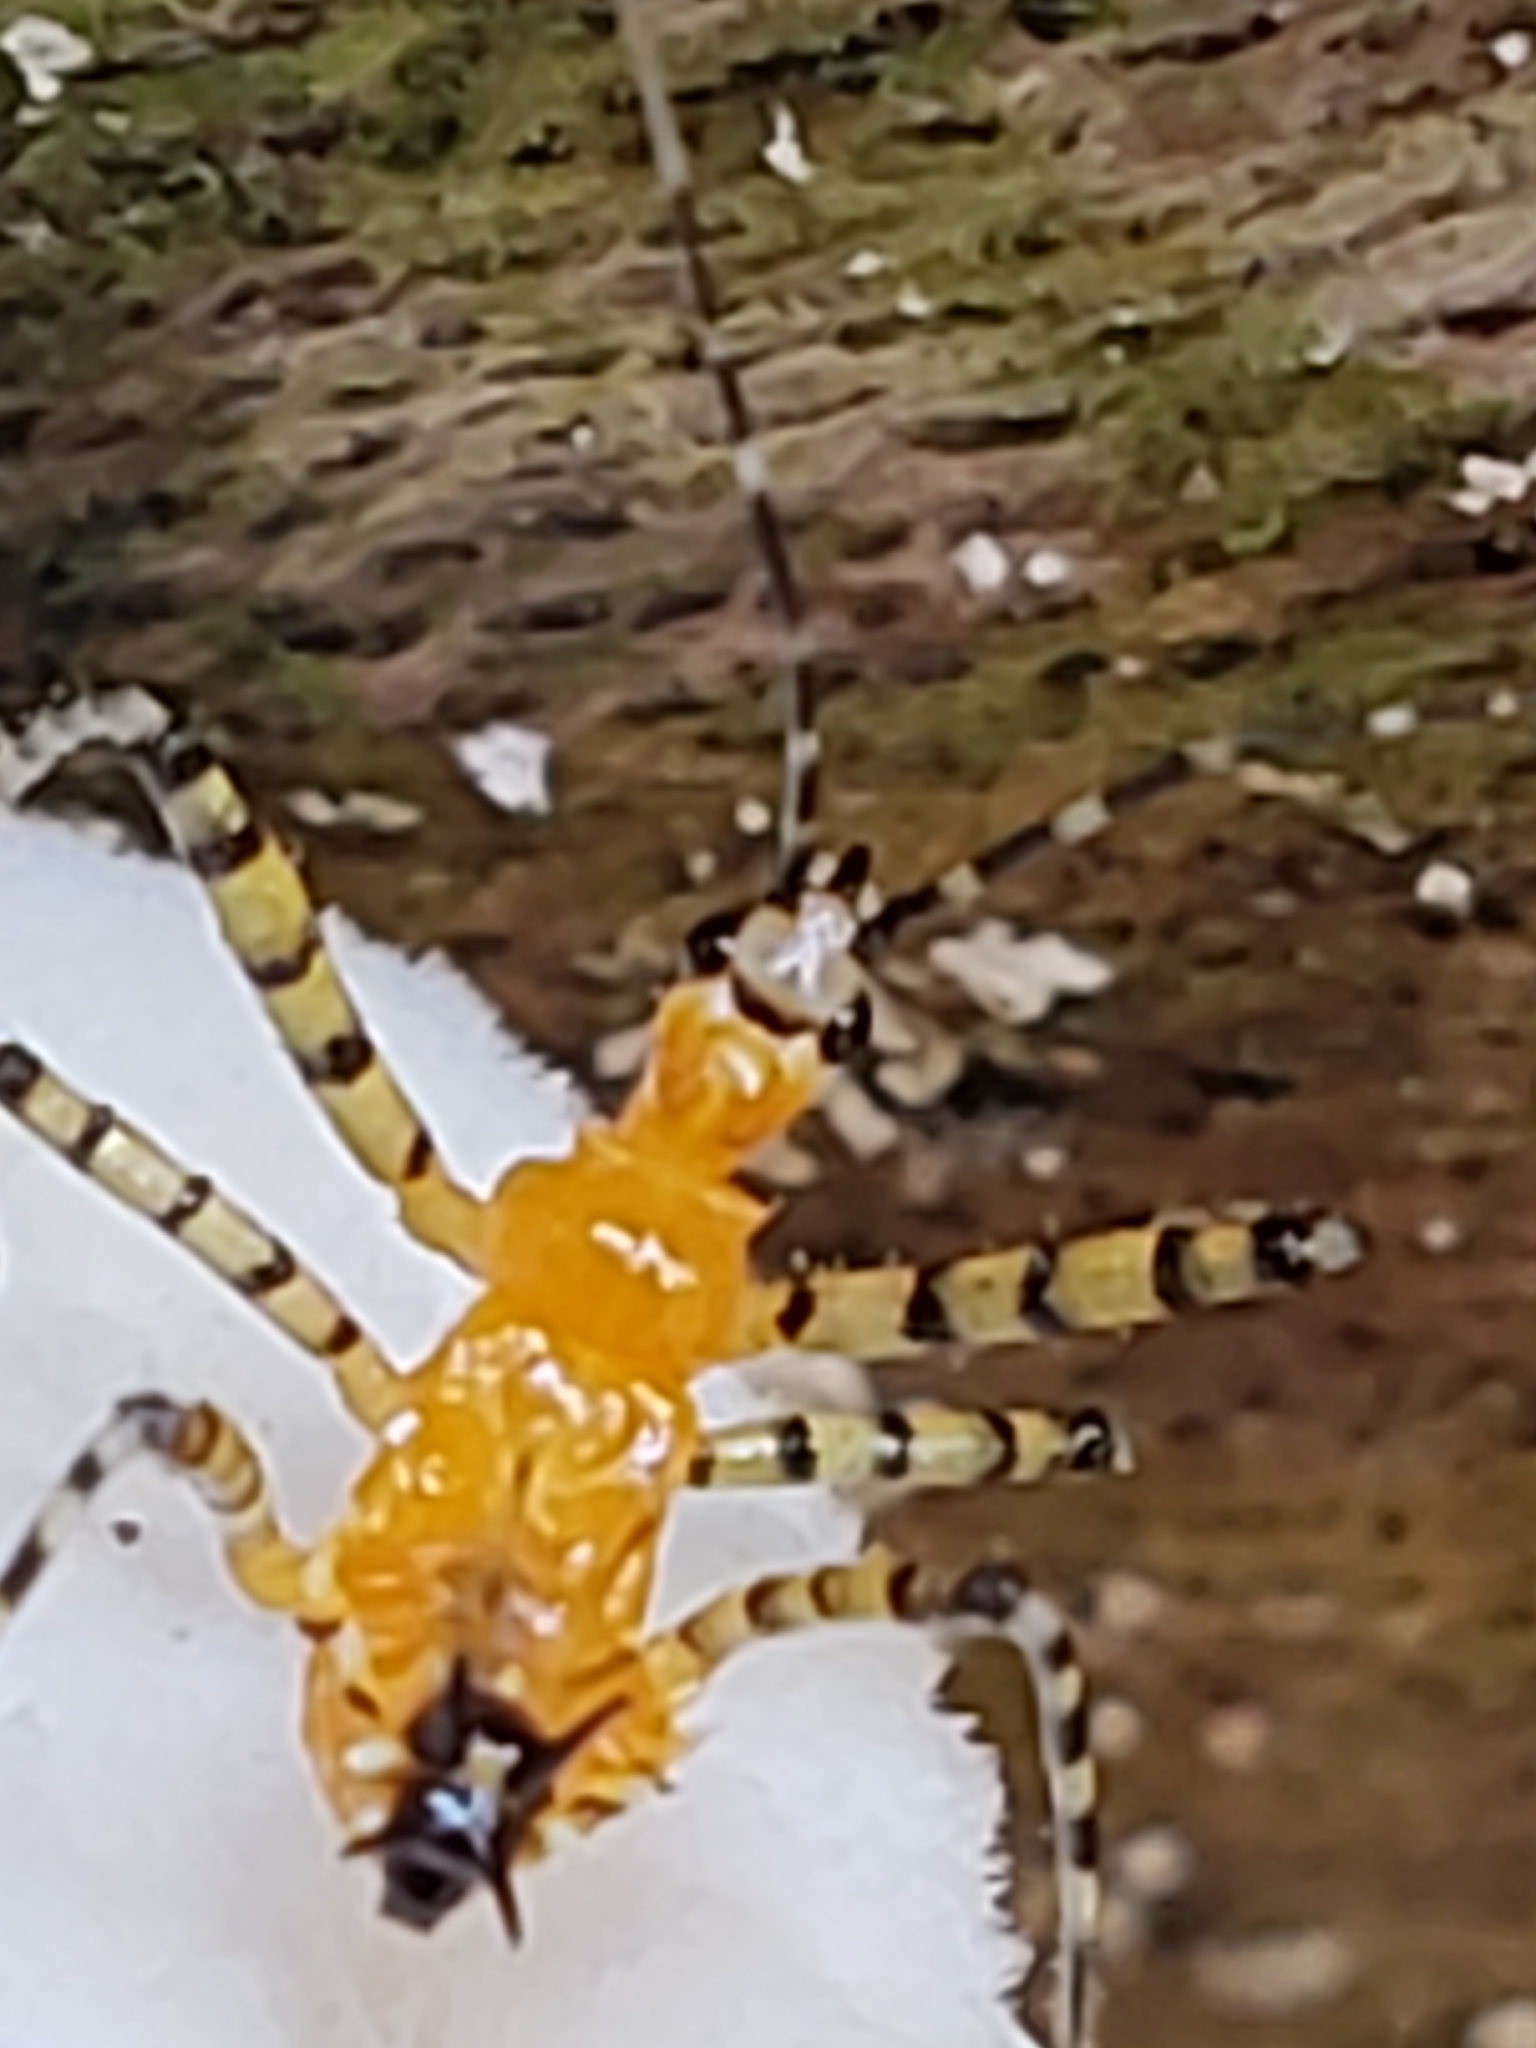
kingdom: Animalia
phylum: Arthropoda
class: Insecta
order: Hemiptera
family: Reduviidae
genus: Pselliopus
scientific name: Pselliopus barberi
